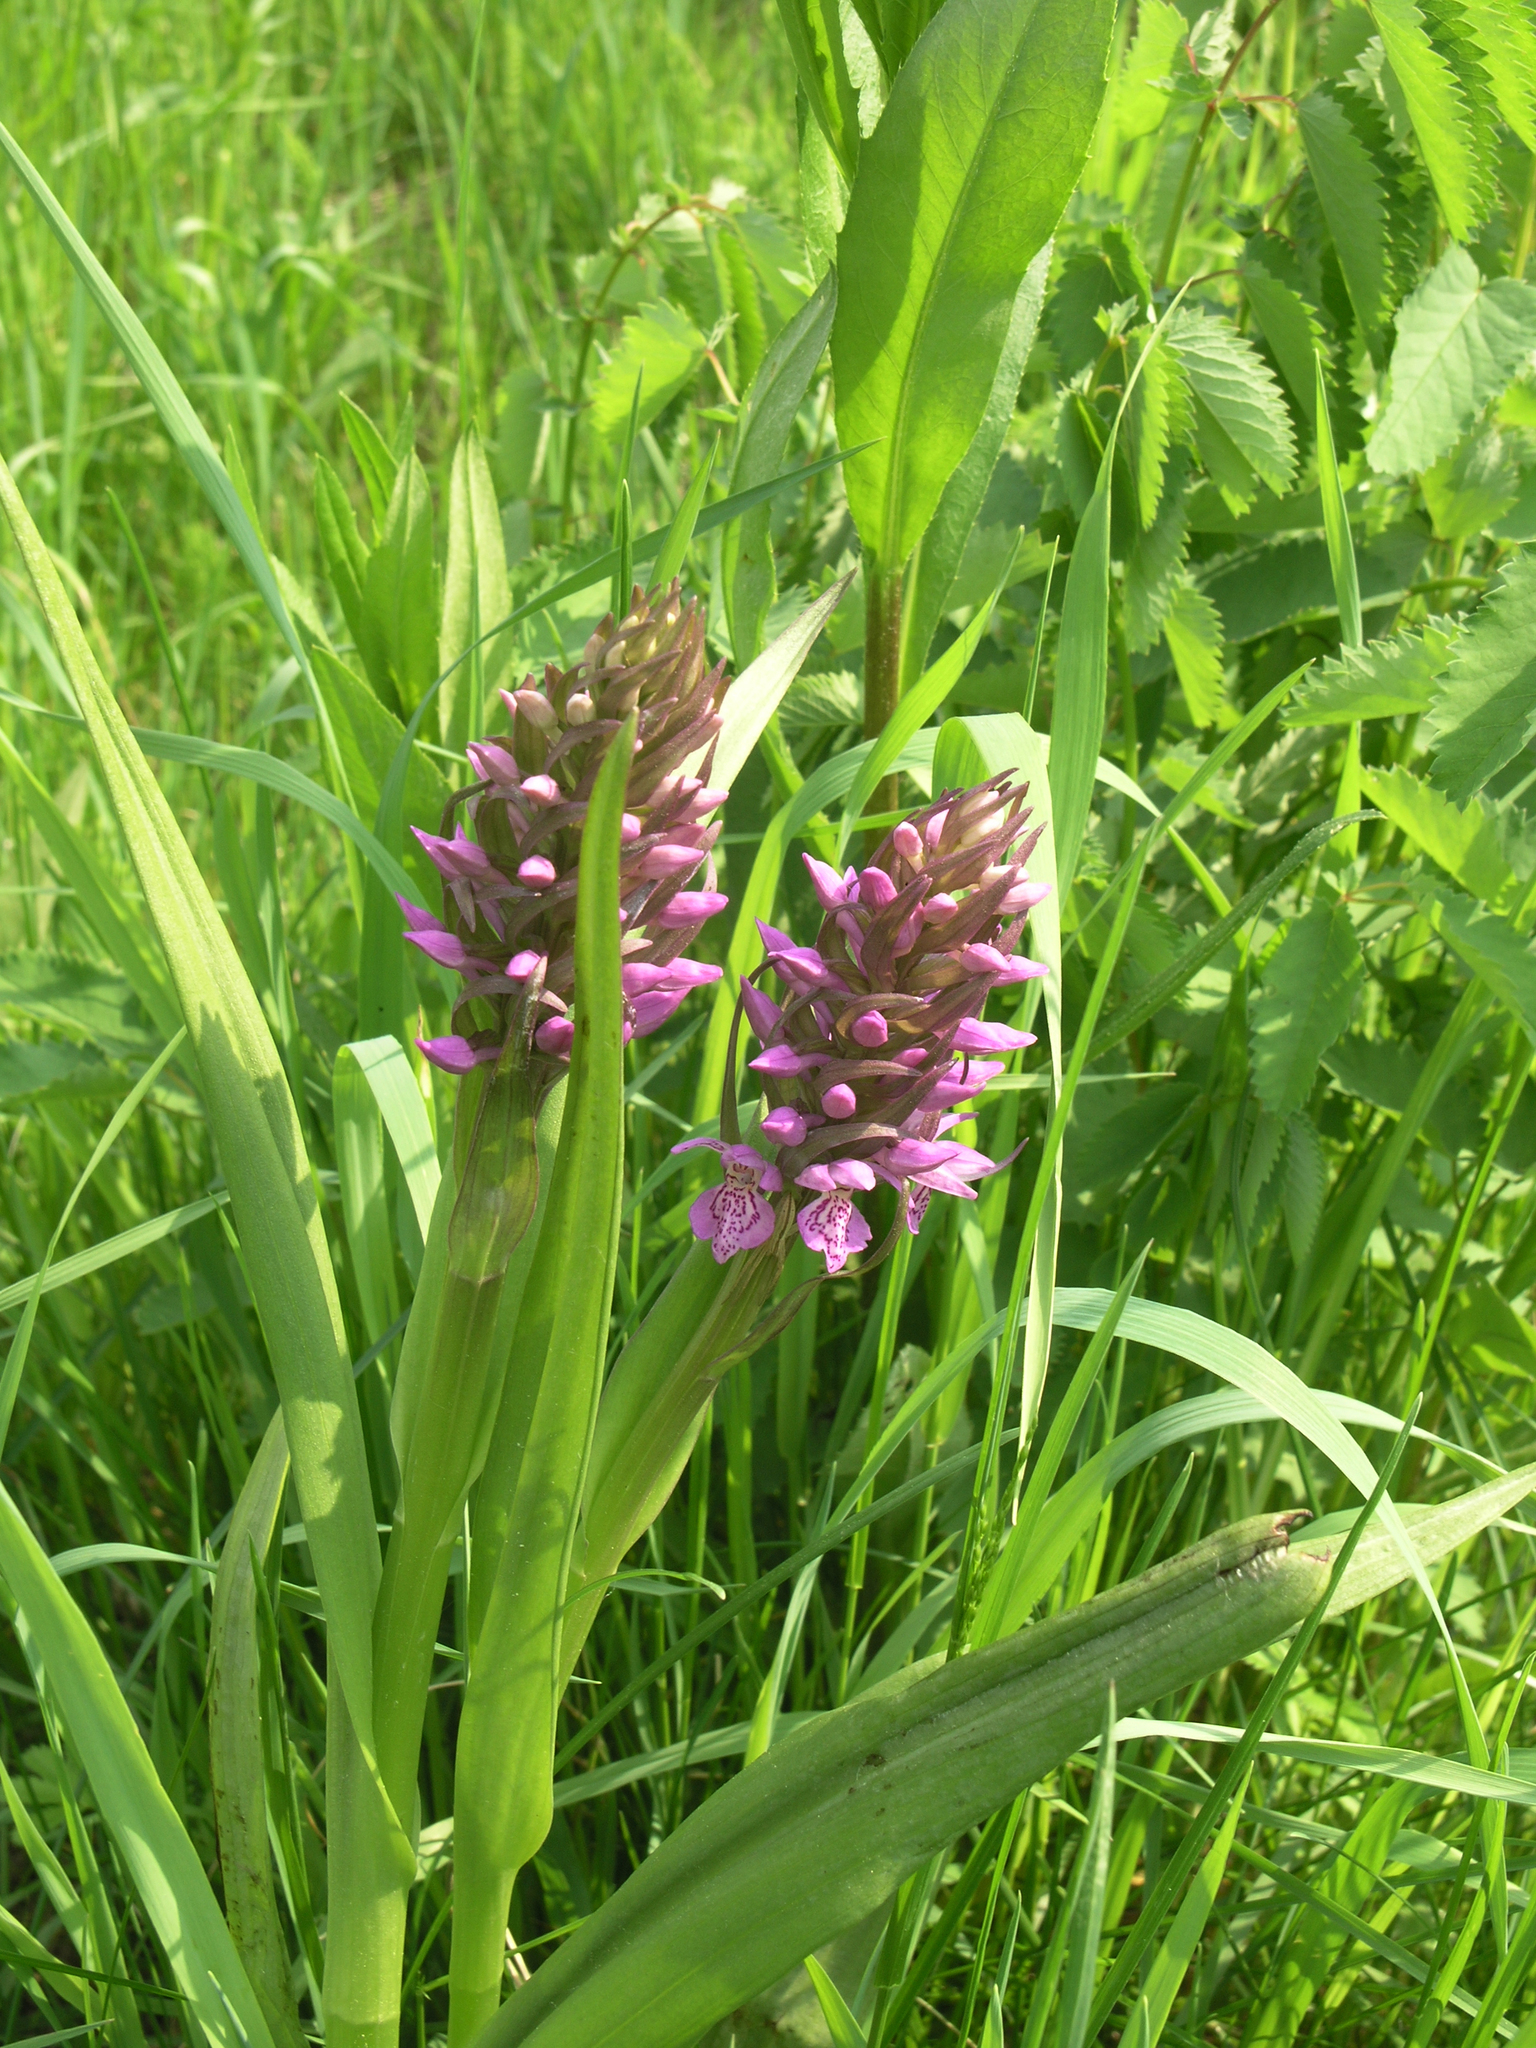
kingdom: Plantae
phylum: Tracheophyta
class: Liliopsida
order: Asparagales
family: Orchidaceae
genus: Dactylorhiza
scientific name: Dactylorhiza incarnata
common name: Early marsh-orchid
